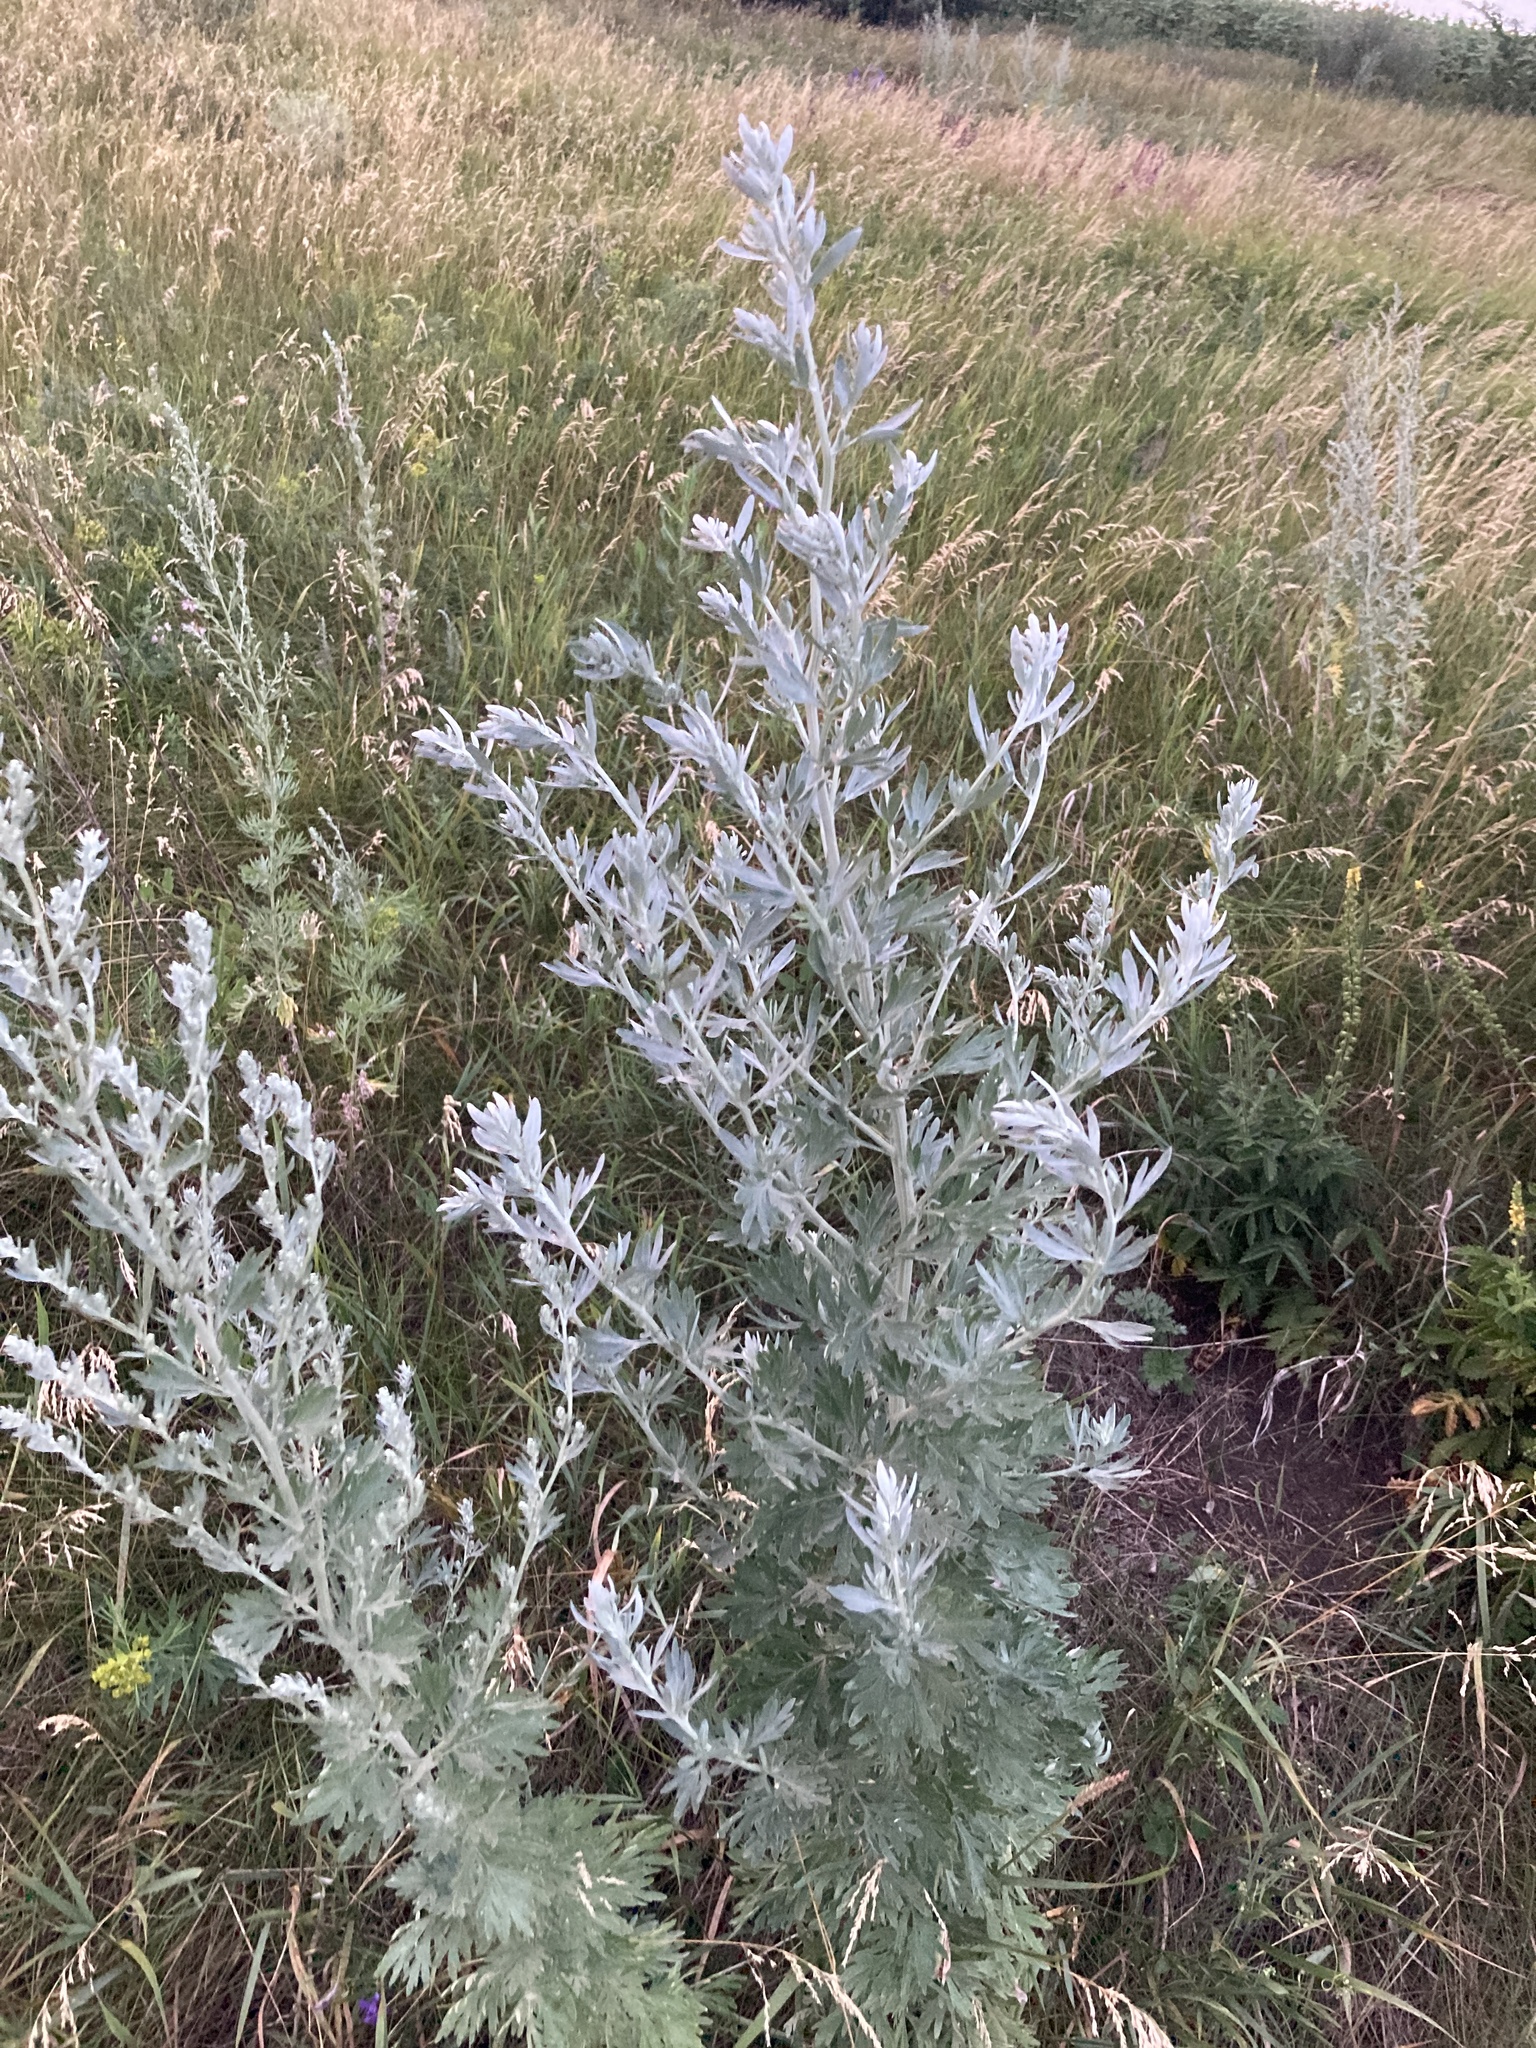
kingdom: Plantae
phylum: Tracheophyta
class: Magnoliopsida
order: Asterales
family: Asteraceae
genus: Artemisia
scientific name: Artemisia absinthium
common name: Wormwood
